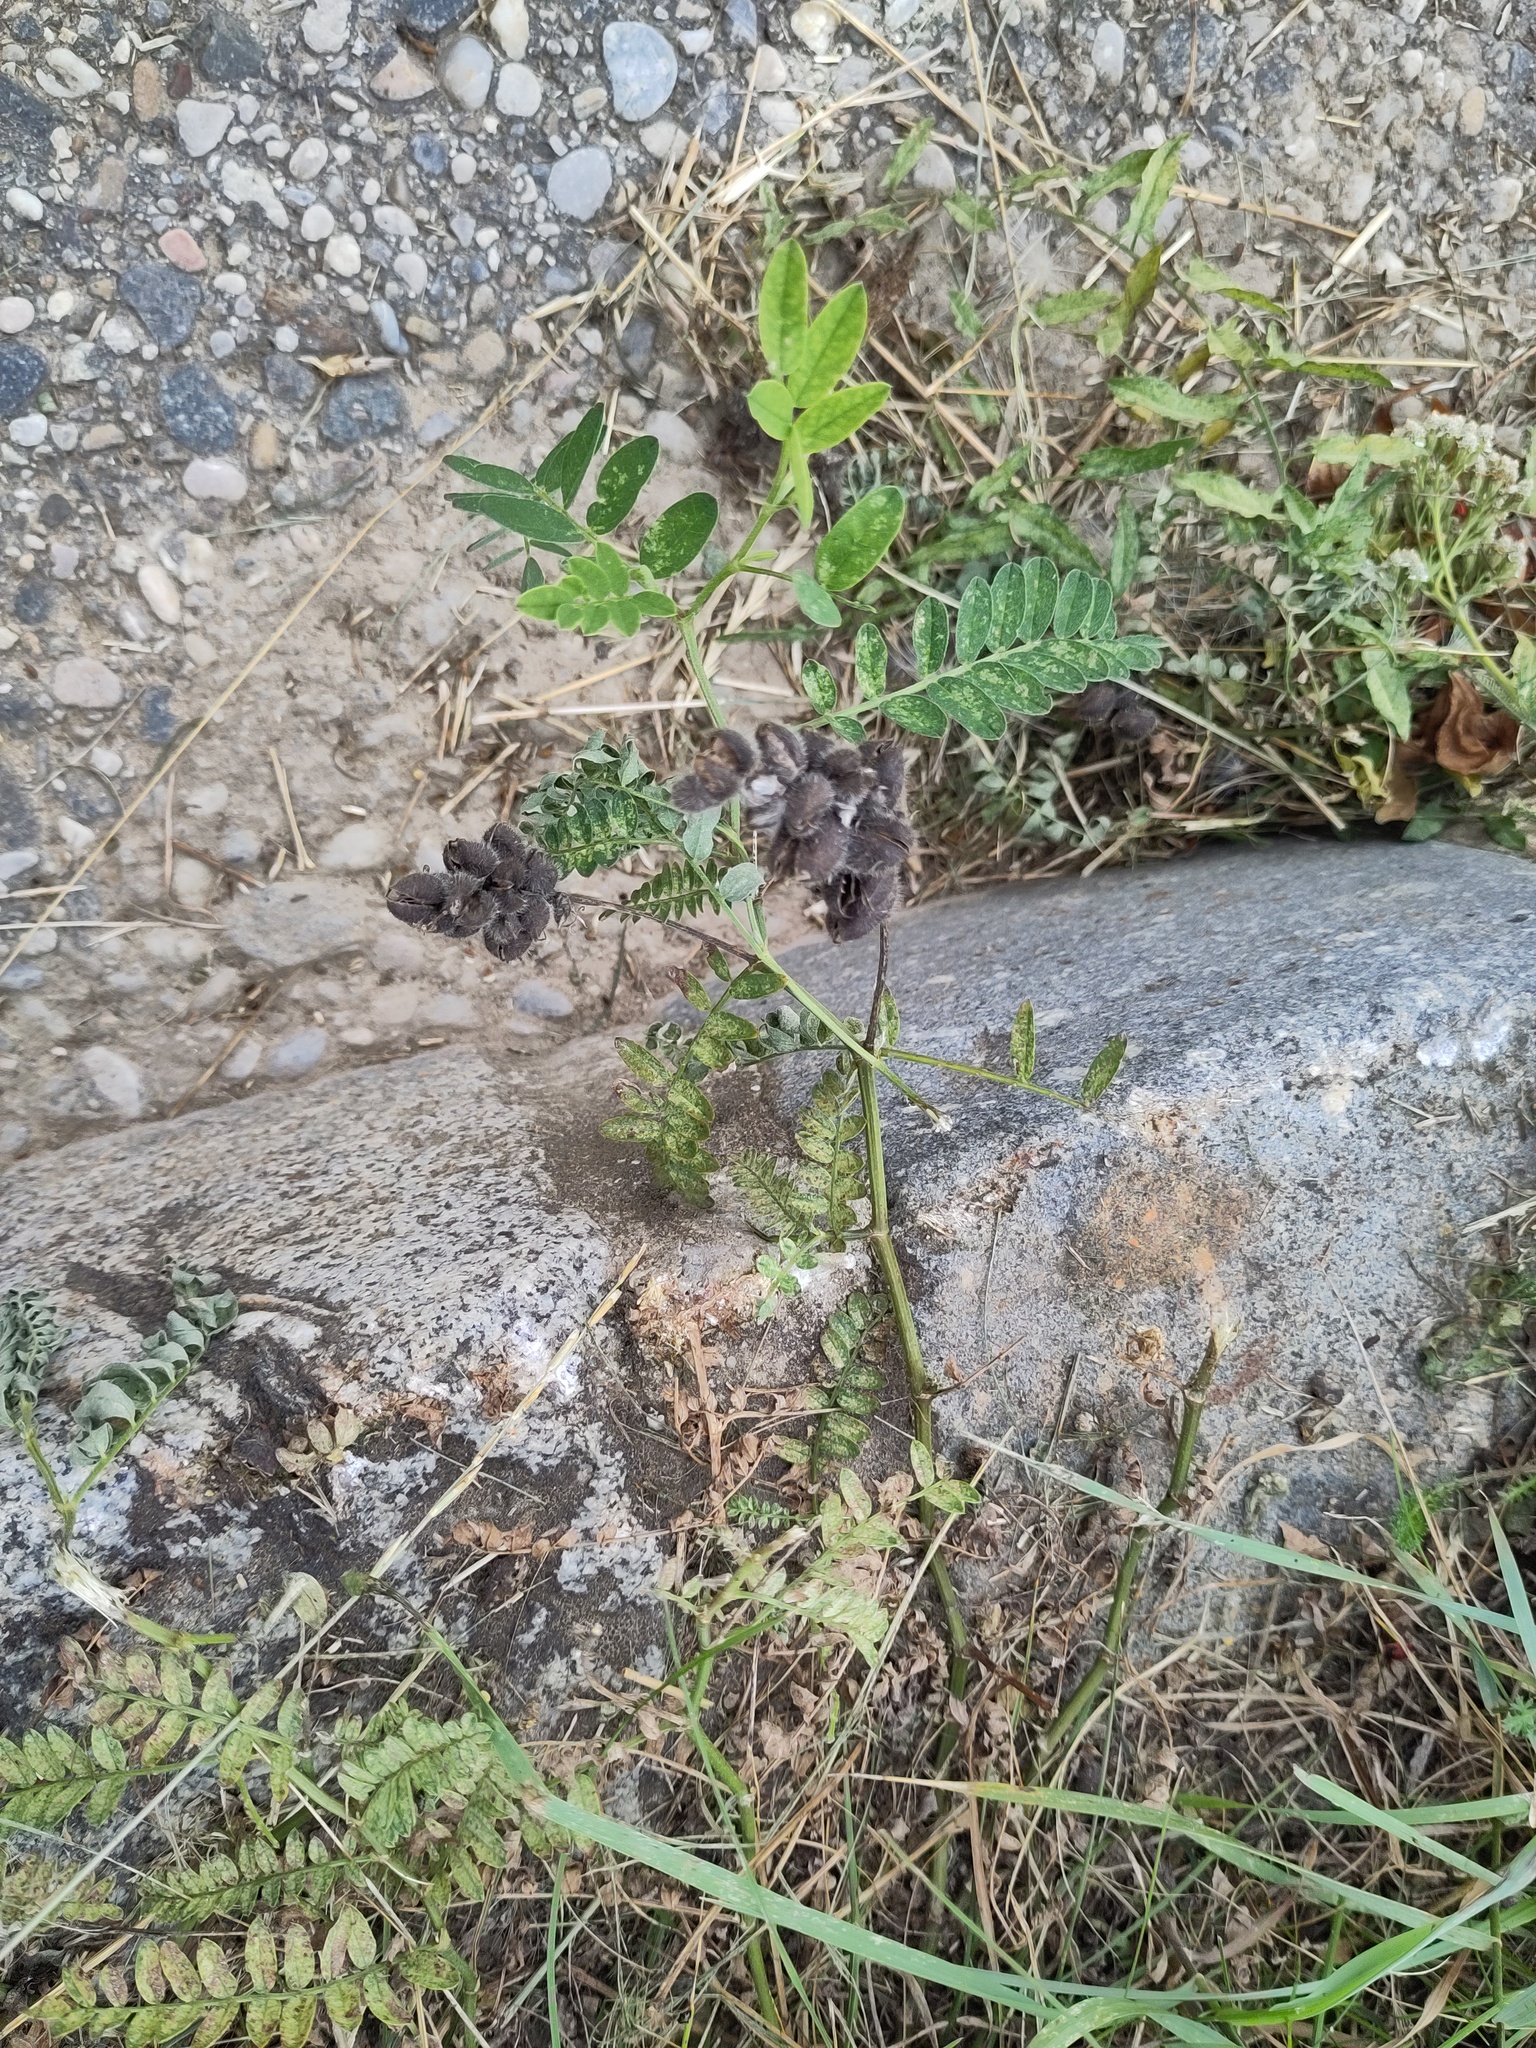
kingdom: Plantae
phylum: Tracheophyta
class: Magnoliopsida
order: Fabales
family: Fabaceae
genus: Astragalus
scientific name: Astragalus cicer
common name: Chick-pea milk-vetch
